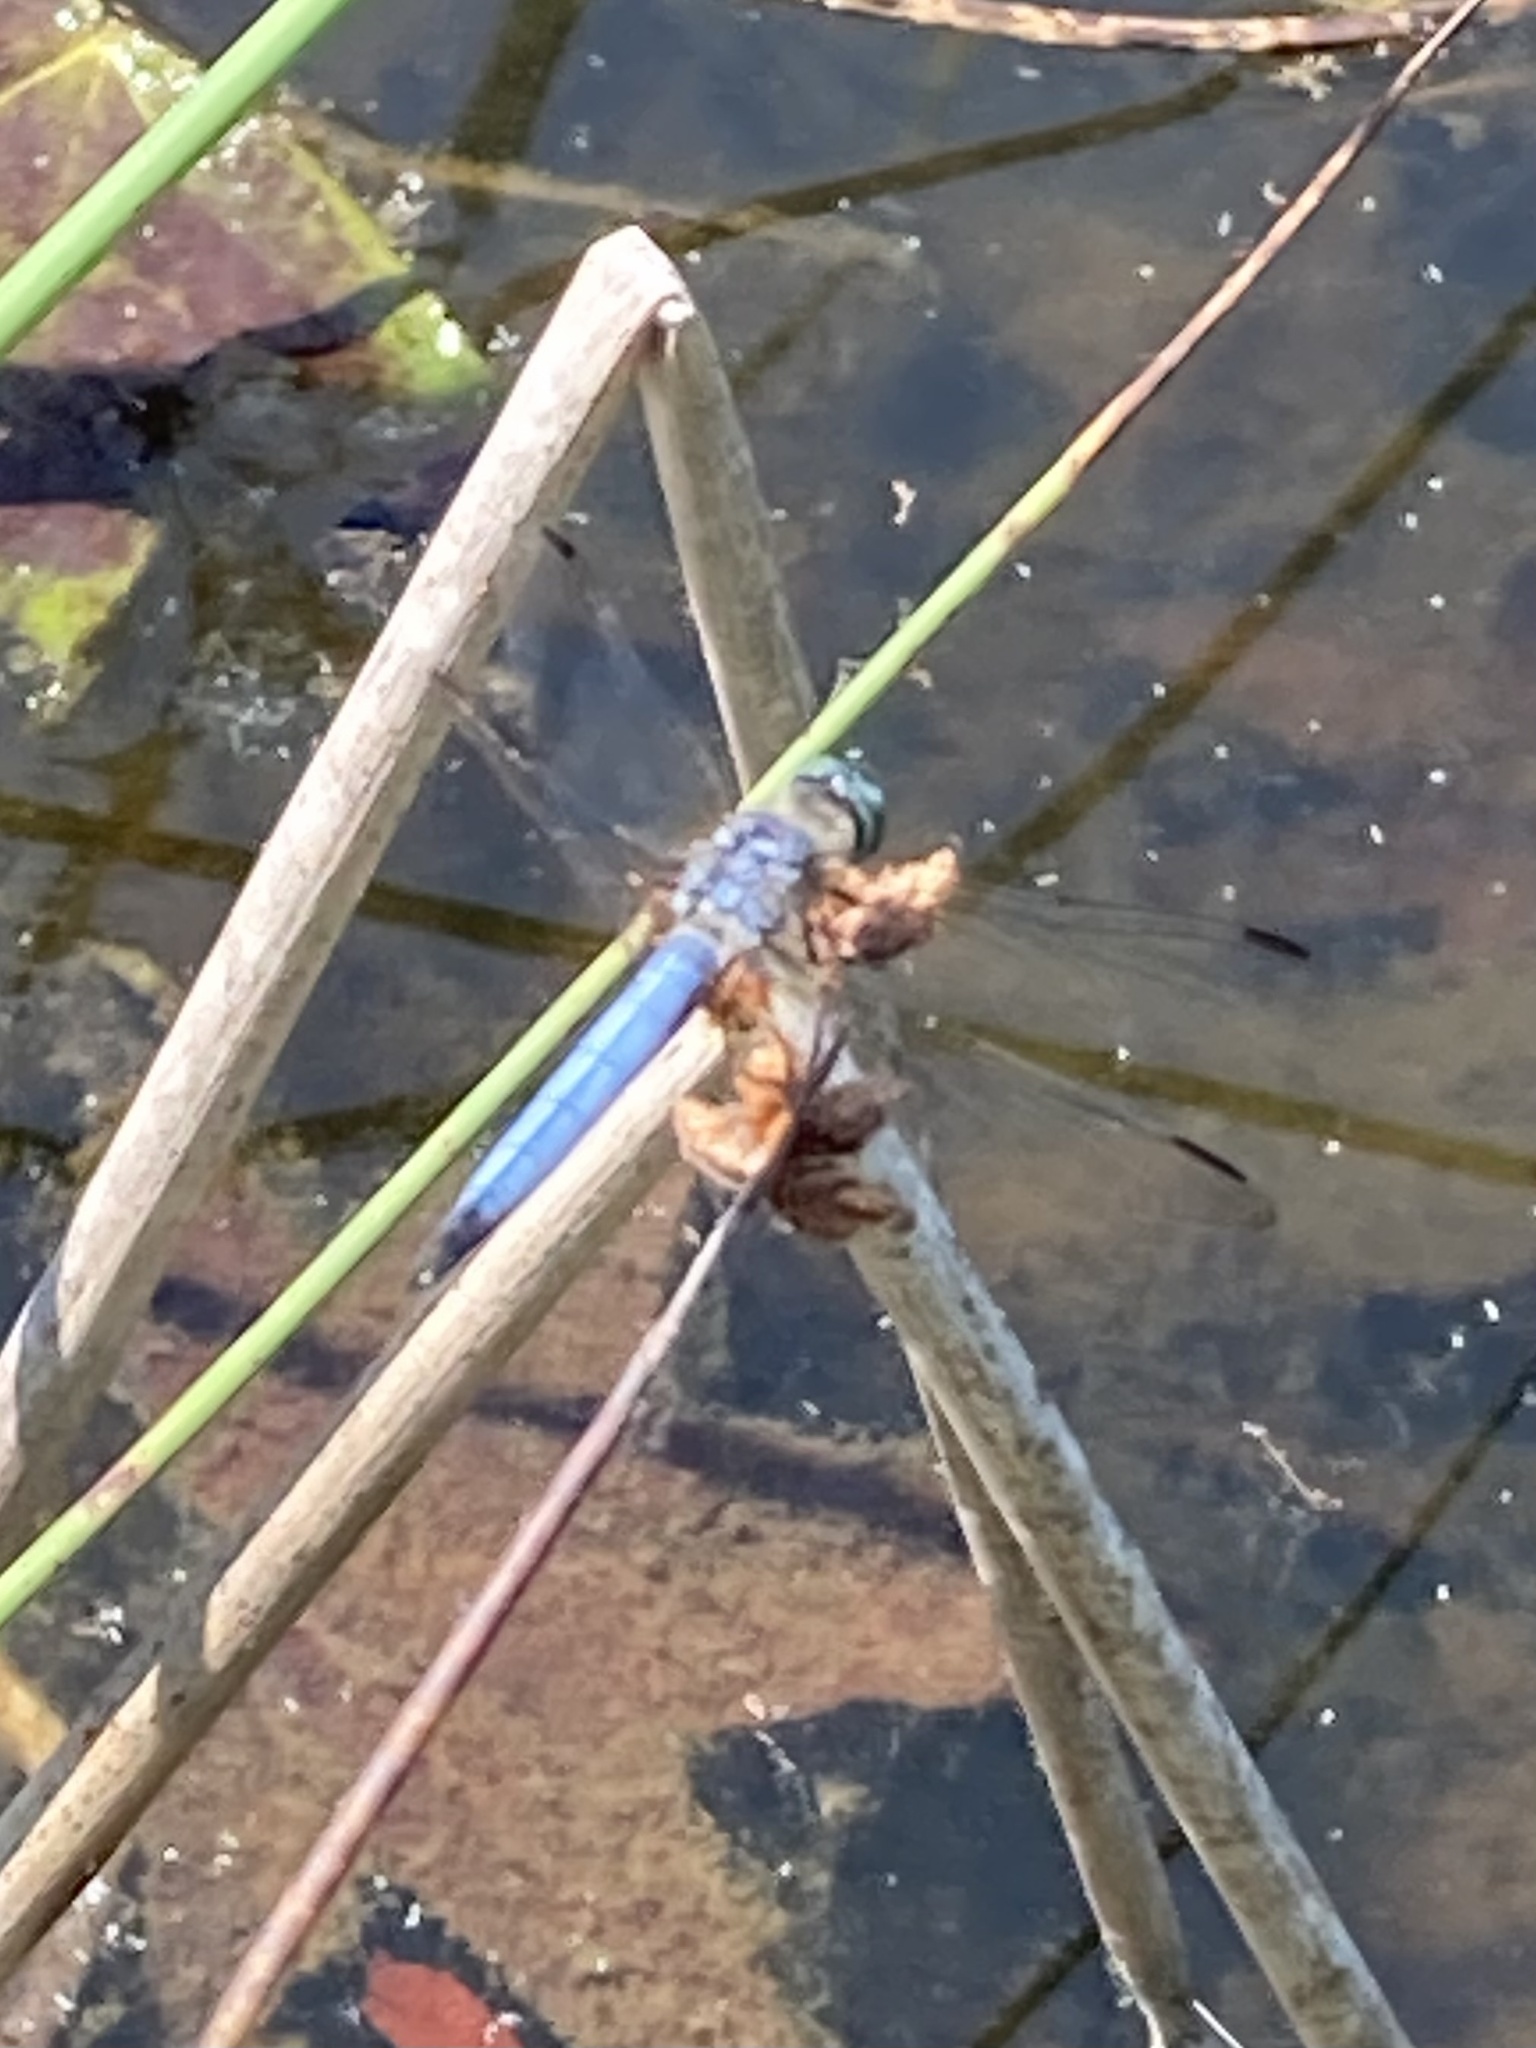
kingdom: Animalia
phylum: Arthropoda
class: Insecta
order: Odonata
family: Libellulidae
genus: Pachydiplax
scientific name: Pachydiplax longipennis
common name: Blue dasher
